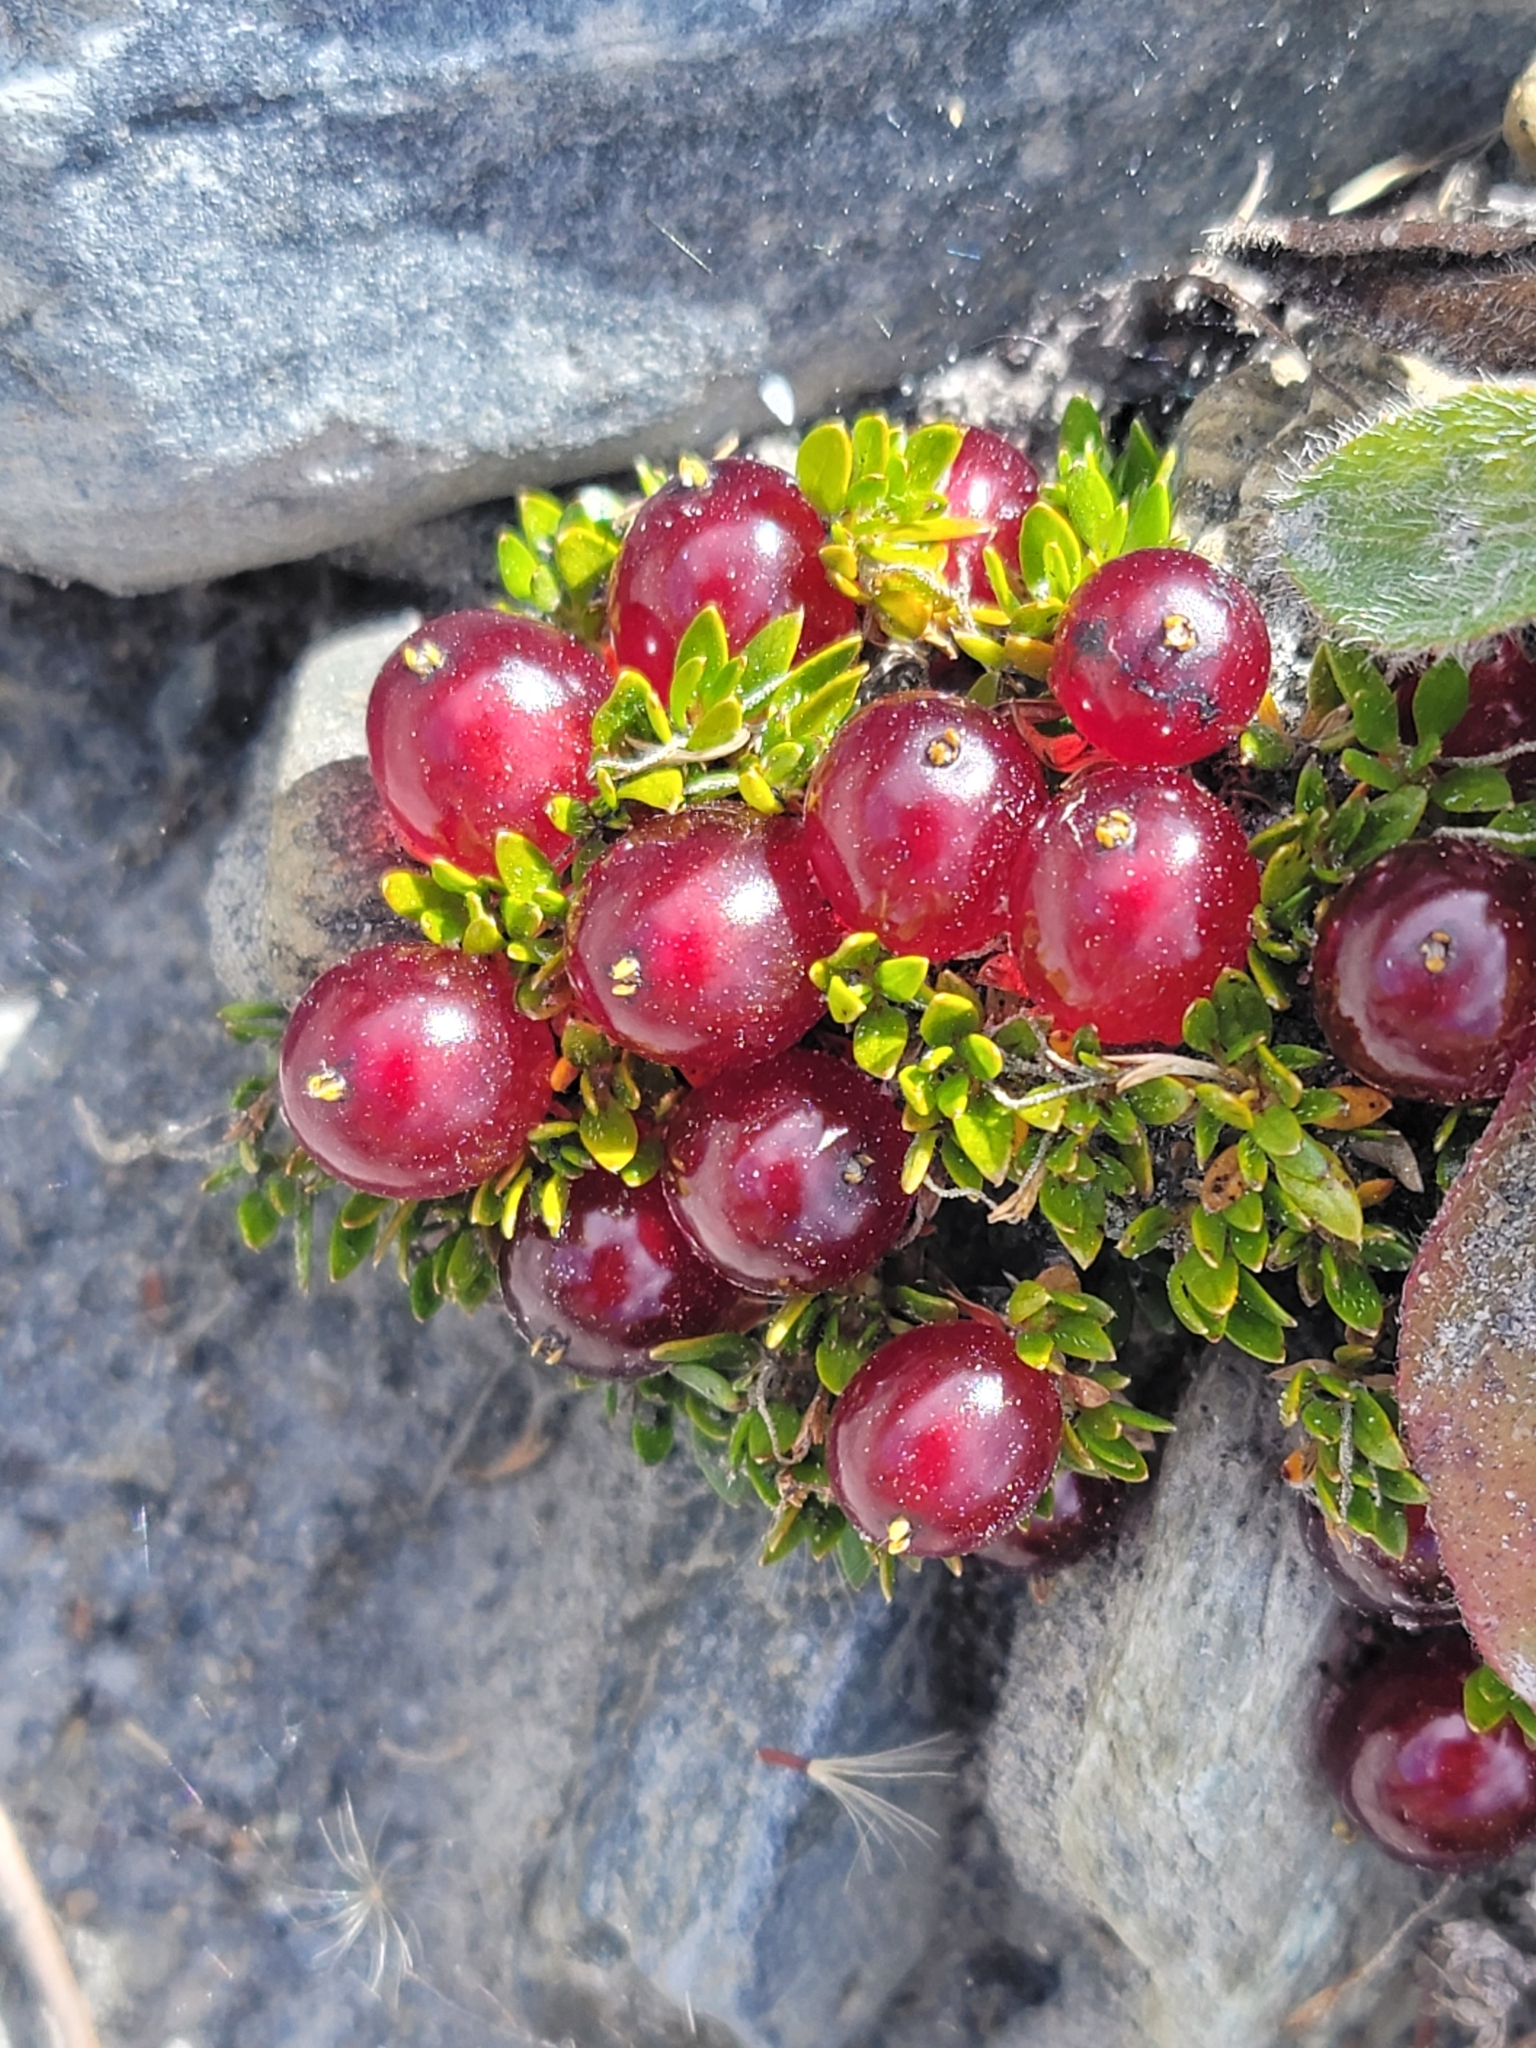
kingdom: Plantae
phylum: Tracheophyta
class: Magnoliopsida
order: Gentianales
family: Rubiaceae
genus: Coprosma
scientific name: Coprosma atropurpurea
